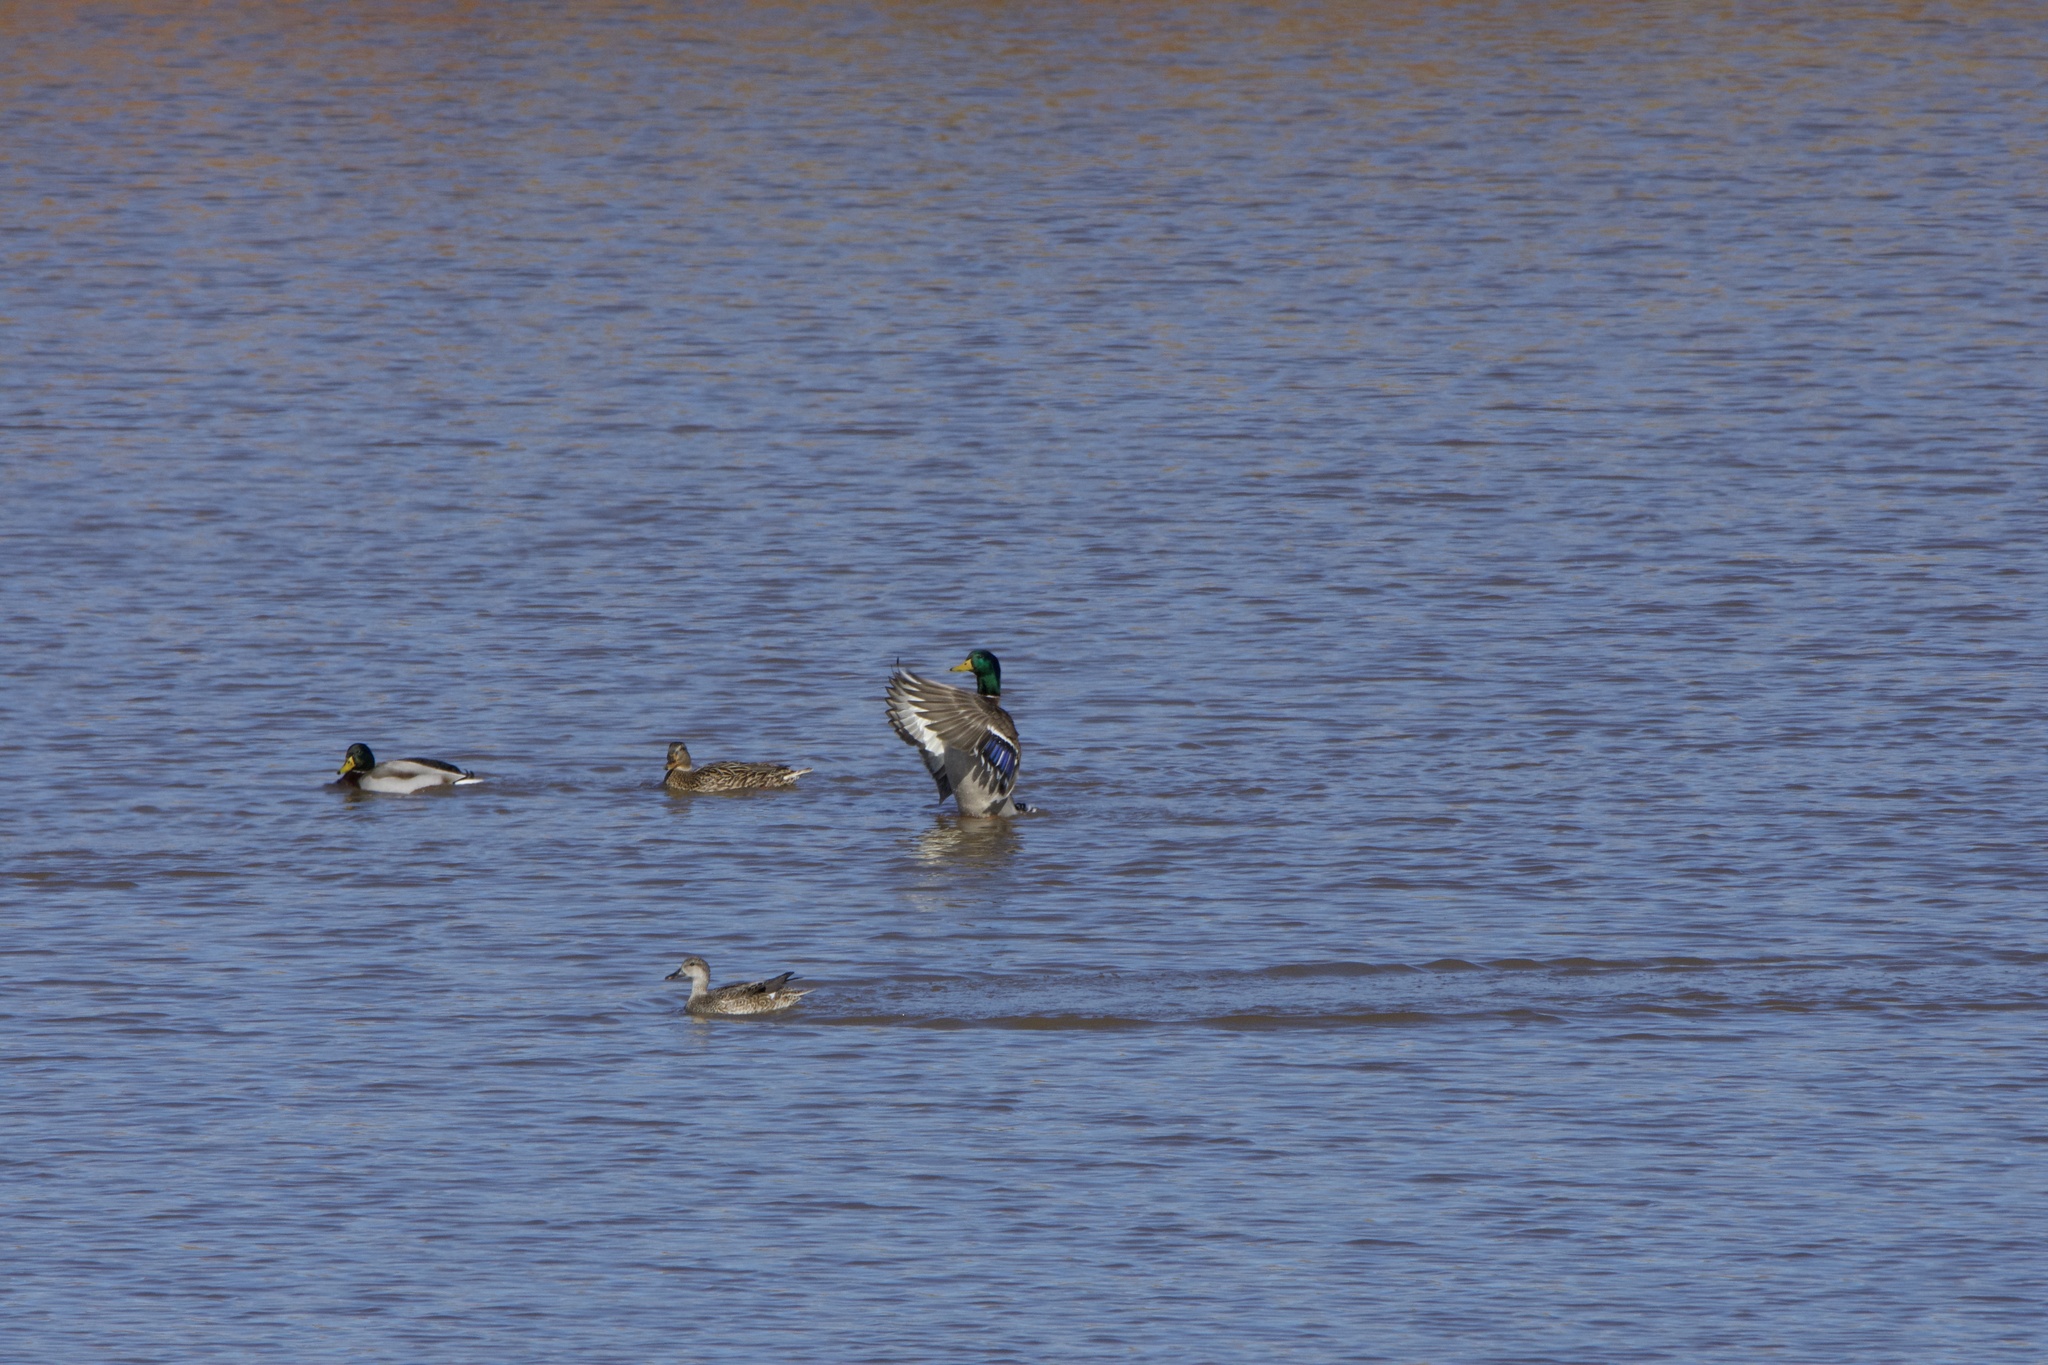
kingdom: Animalia
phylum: Chordata
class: Aves
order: Anseriformes
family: Anatidae
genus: Anas
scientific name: Anas platyrhynchos
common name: Mallard
